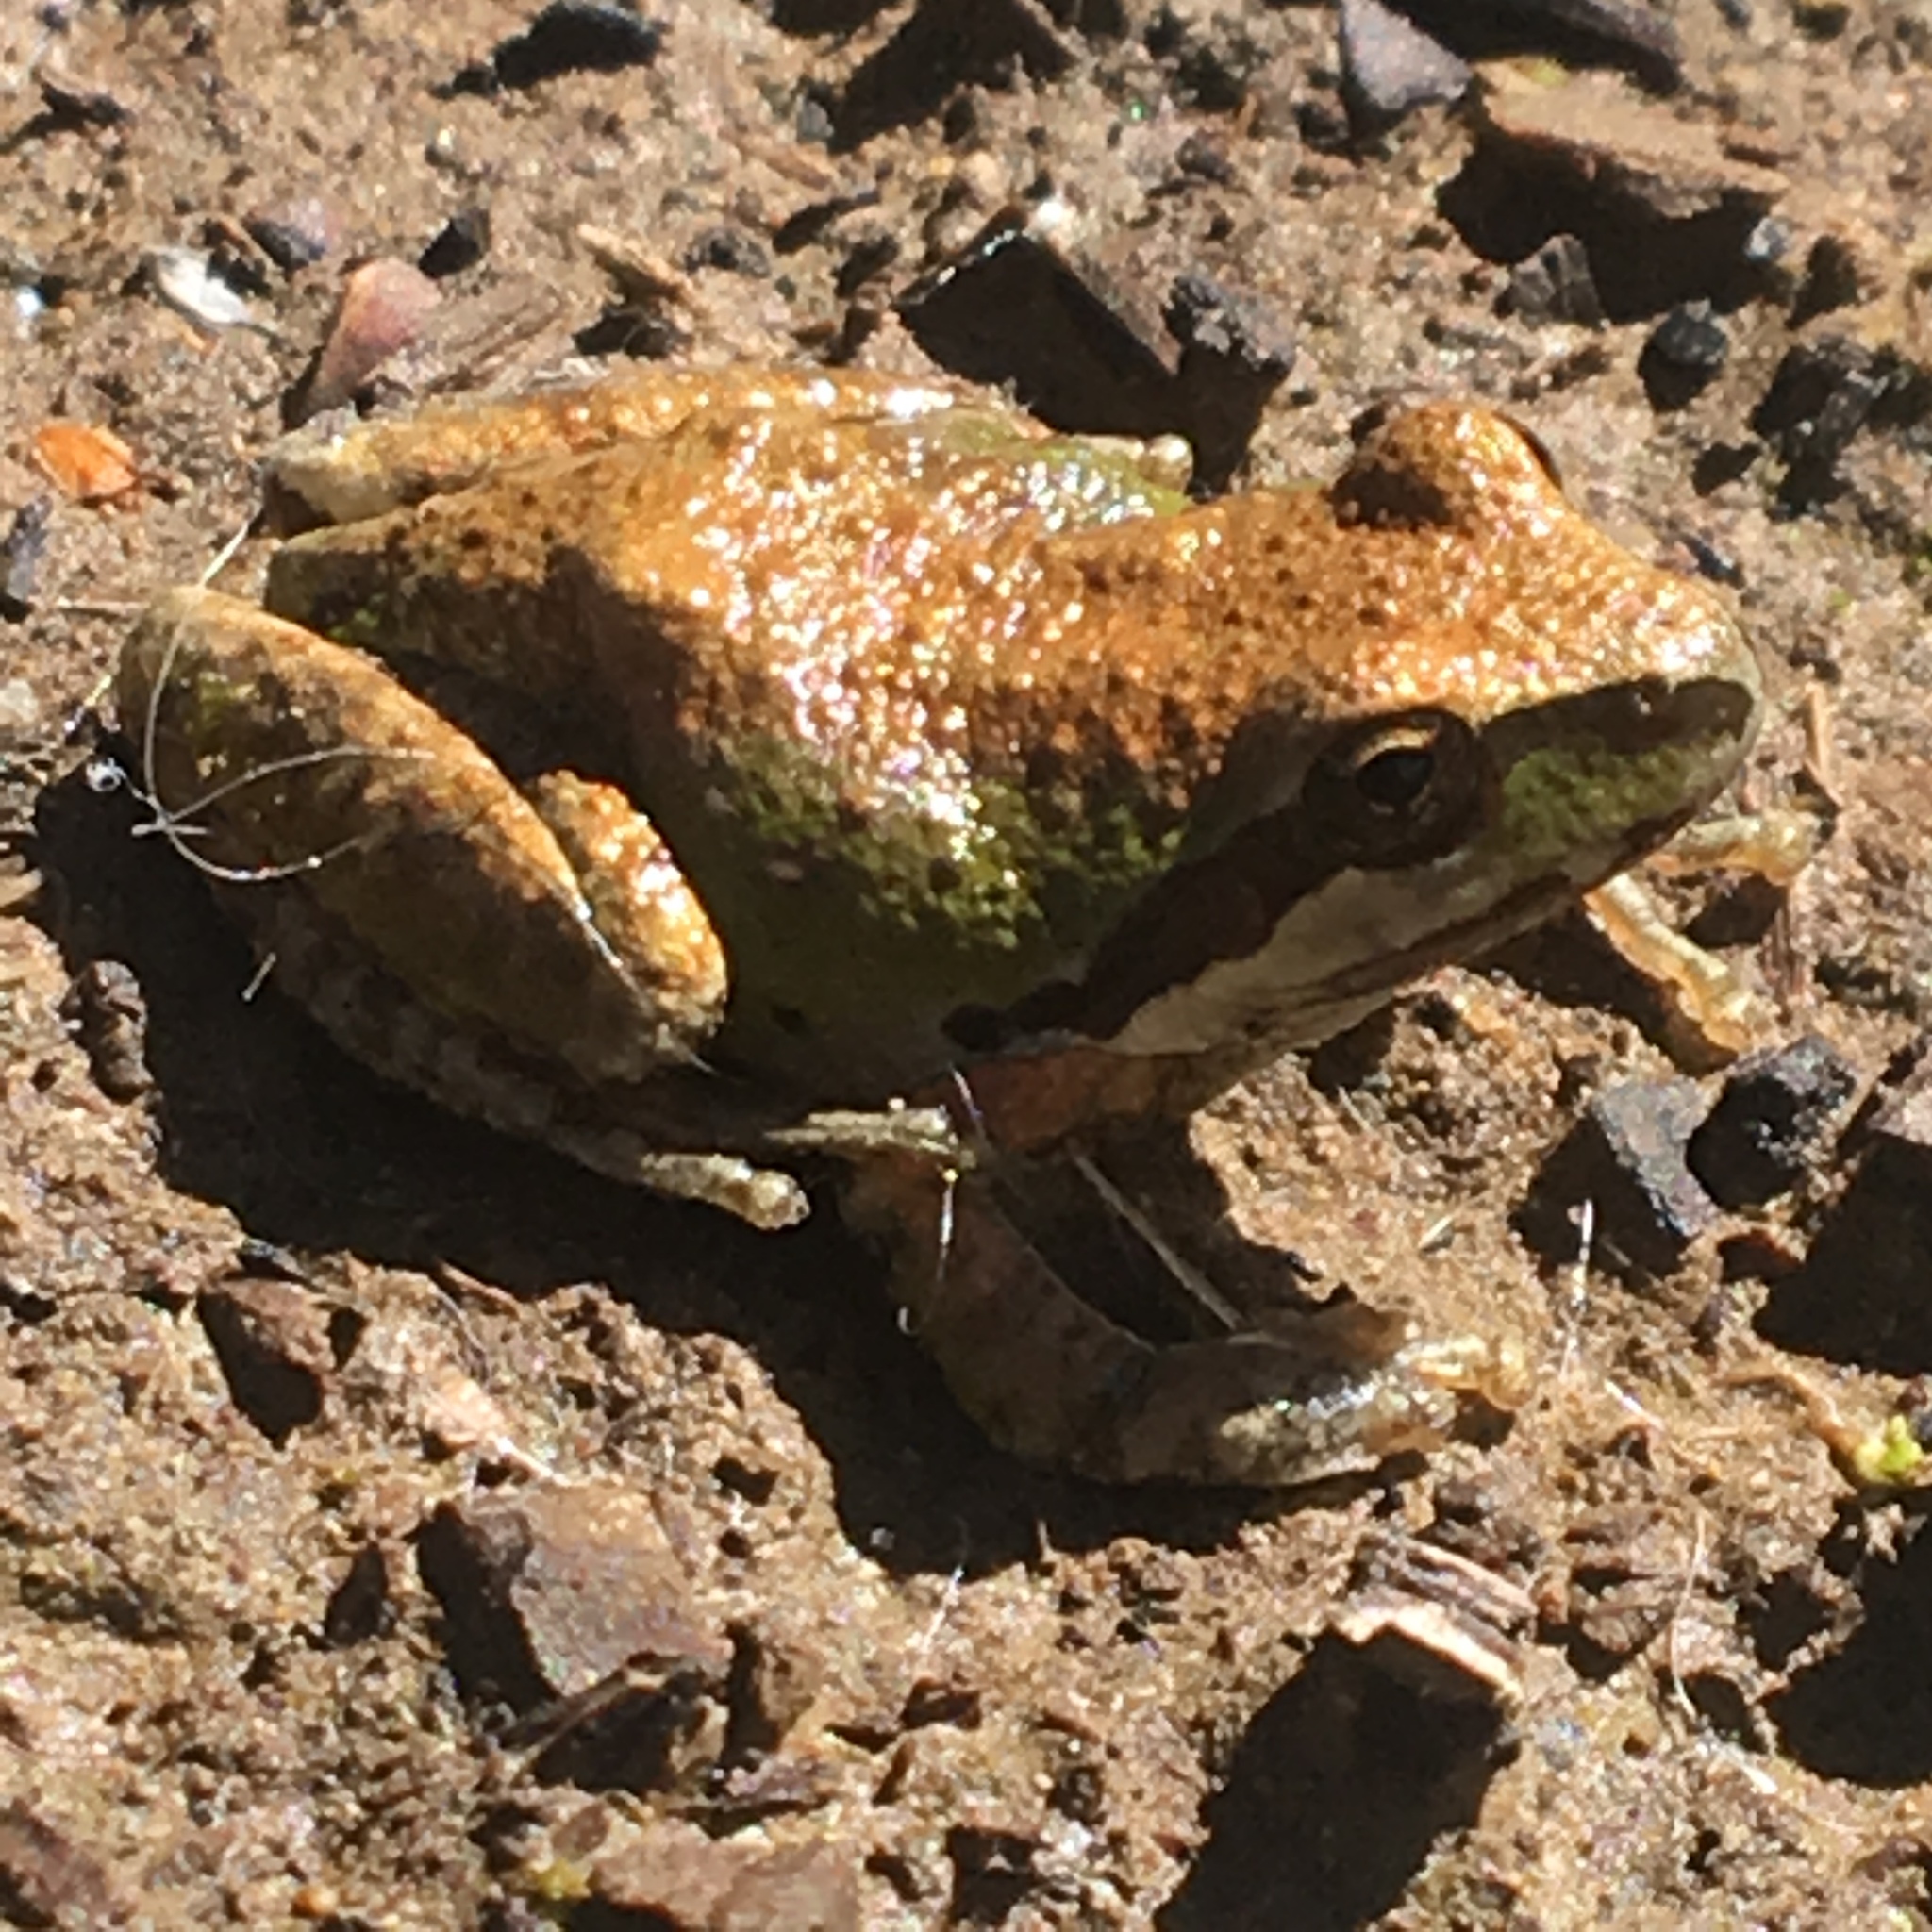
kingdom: Animalia
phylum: Chordata
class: Amphibia
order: Anura
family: Hylidae
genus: Pseudacris
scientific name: Pseudacris regilla
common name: Pacific chorus frog
